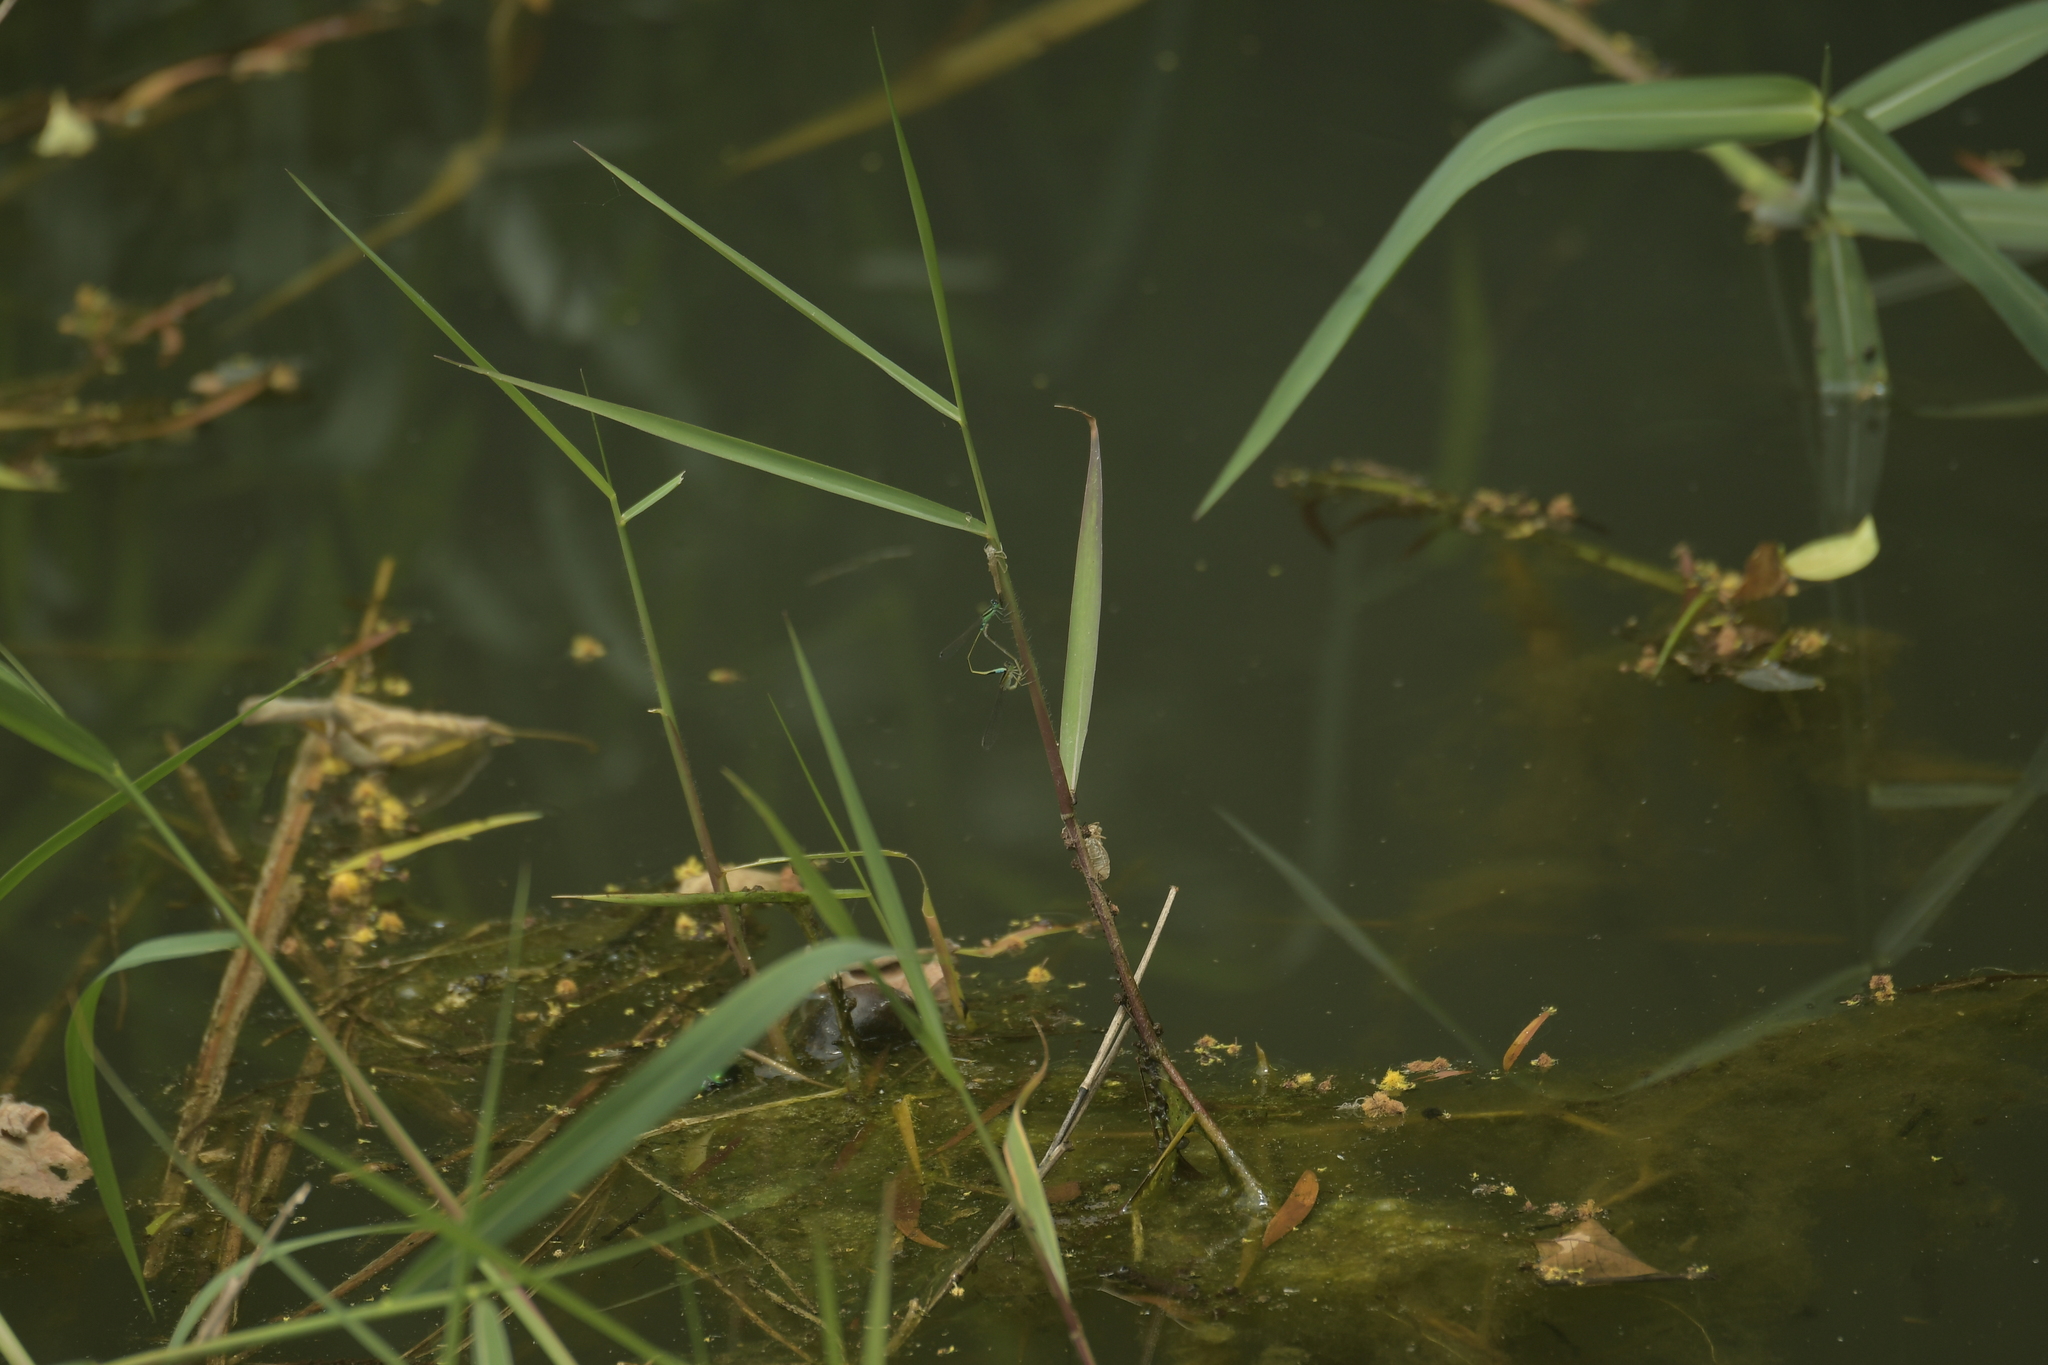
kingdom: Animalia
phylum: Arthropoda
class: Insecta
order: Odonata
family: Coenagrionidae
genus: Ischnura
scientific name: Ischnura senegalensis
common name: Tropical bluetail
